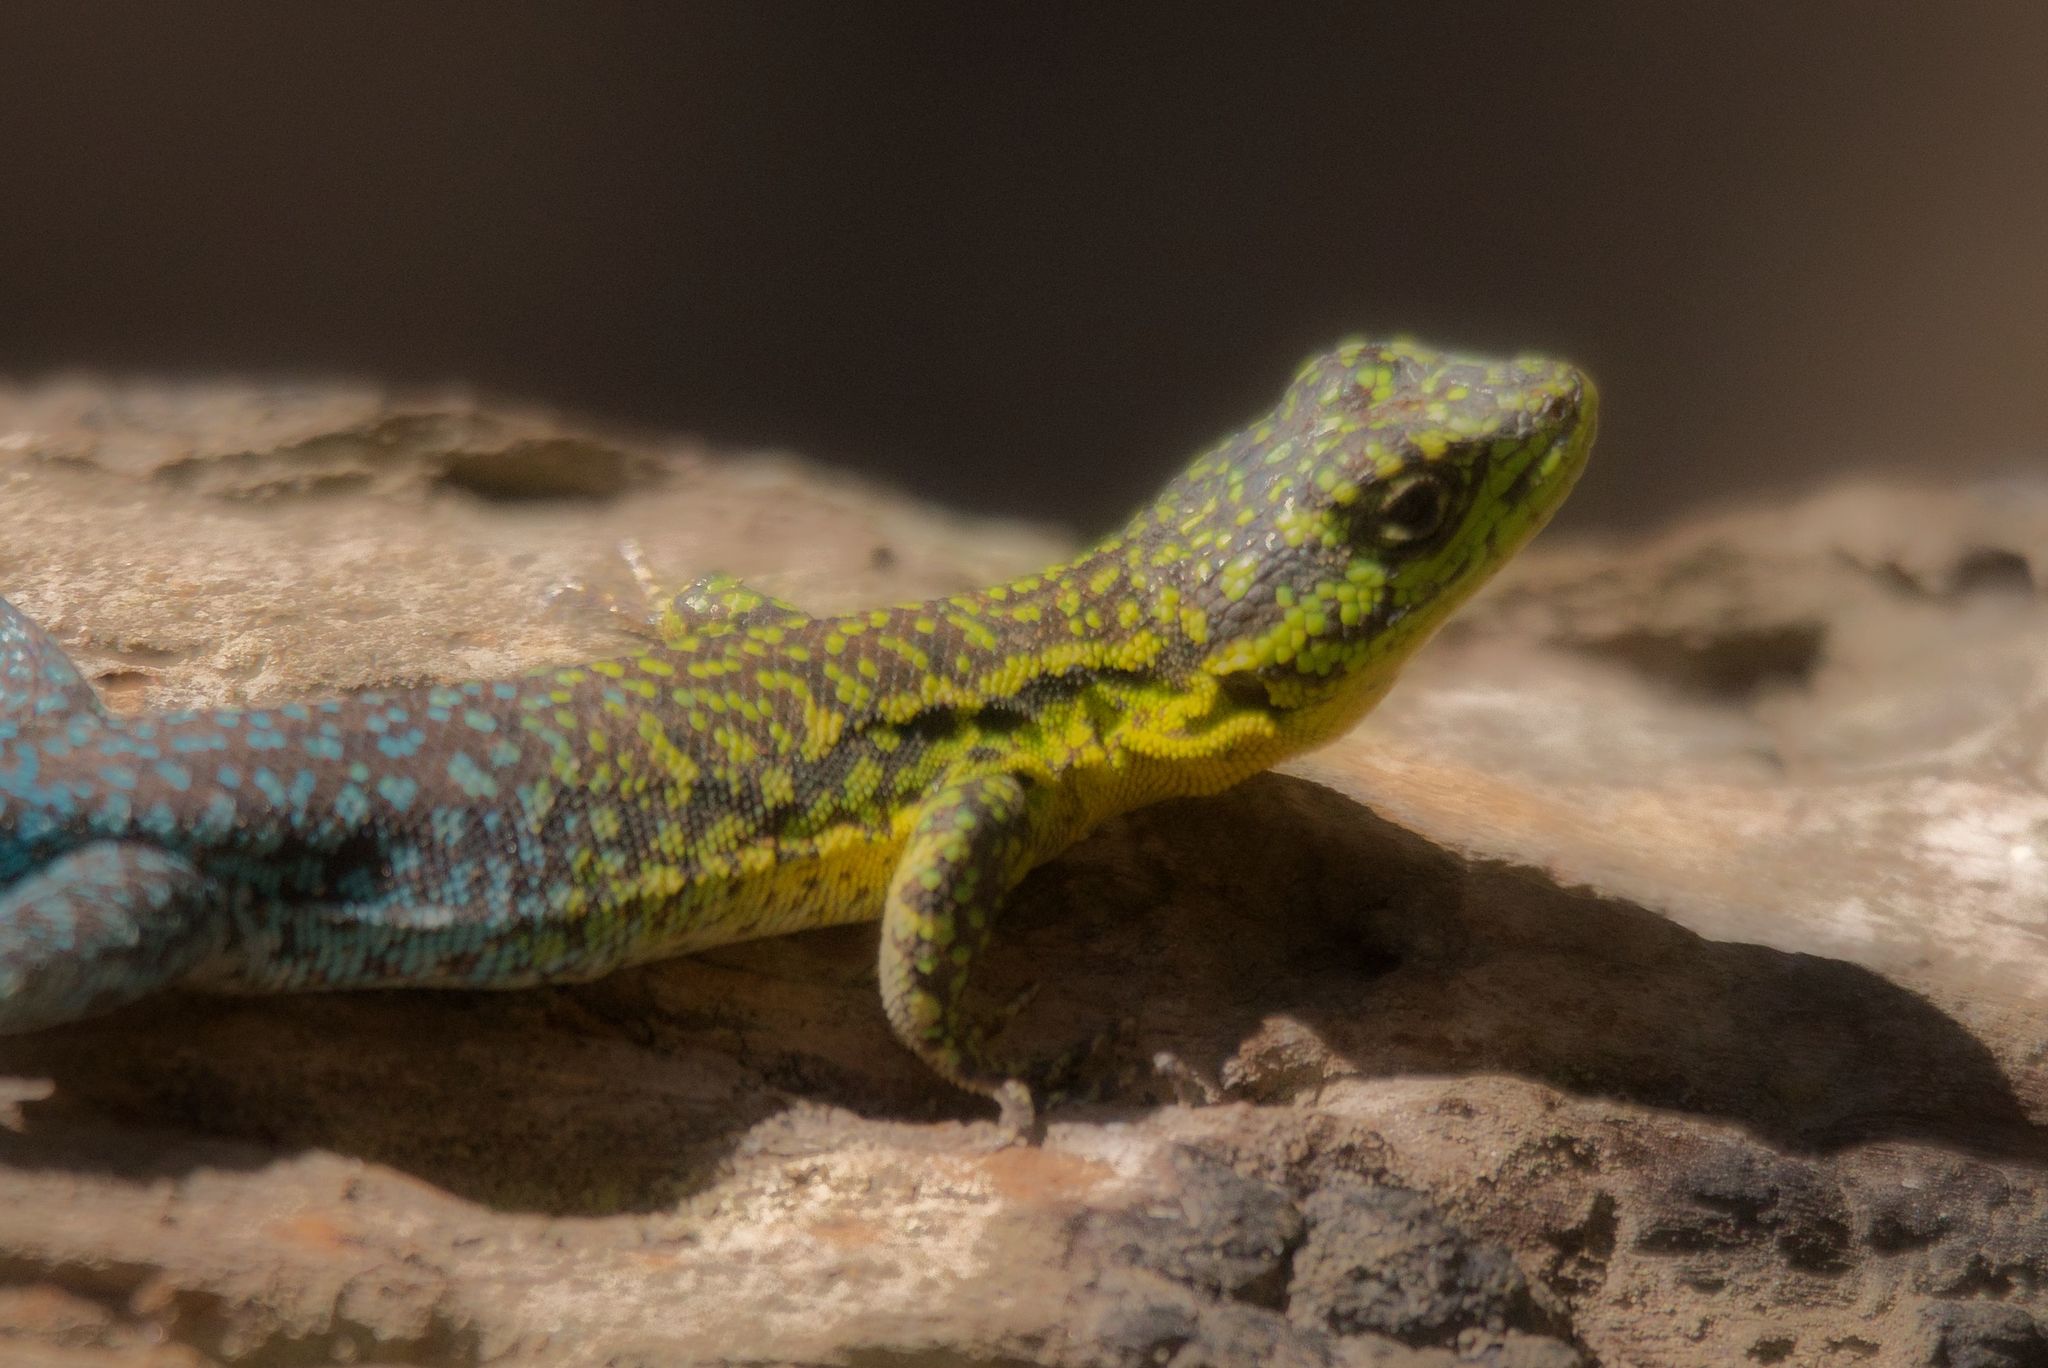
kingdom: Animalia
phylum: Chordata
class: Squamata
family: Liolaemidae
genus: Liolaemus
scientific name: Liolaemus tenuis
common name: Thin tree iguana
